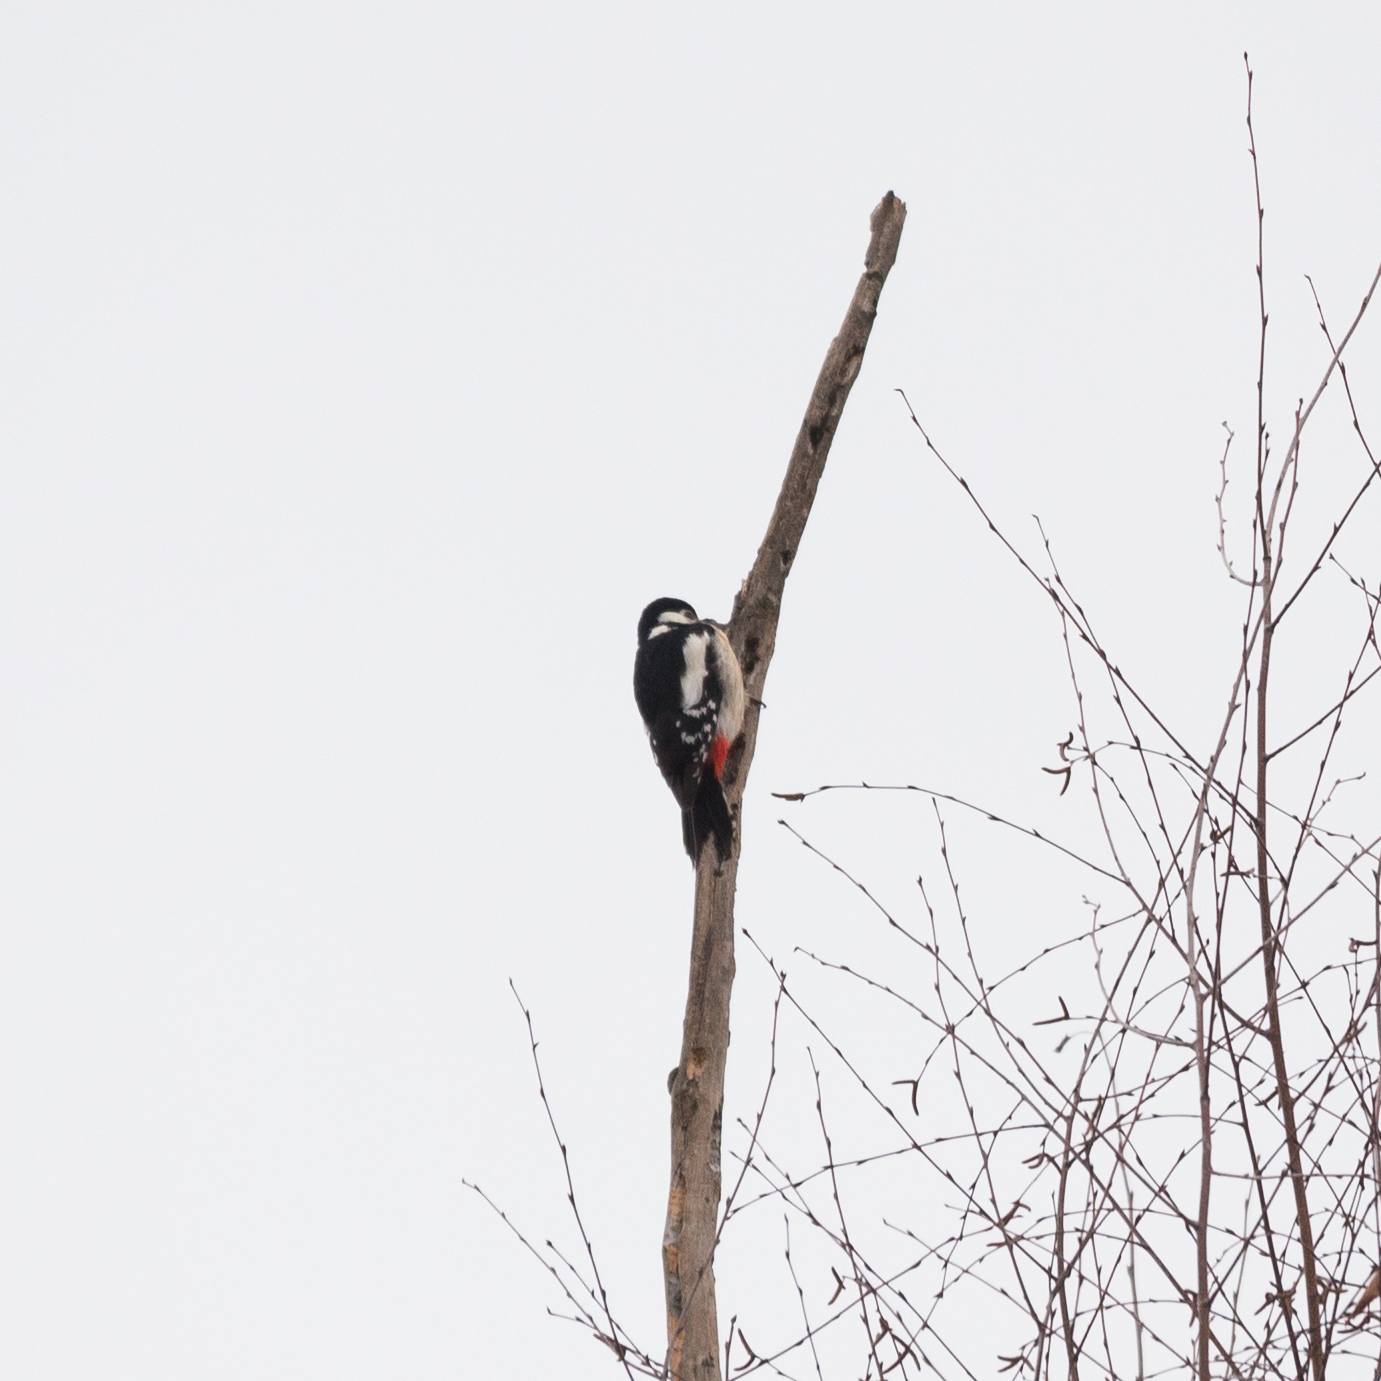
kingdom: Animalia
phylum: Chordata
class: Aves
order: Piciformes
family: Picidae
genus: Dendrocopos
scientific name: Dendrocopos major
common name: Great spotted woodpecker
